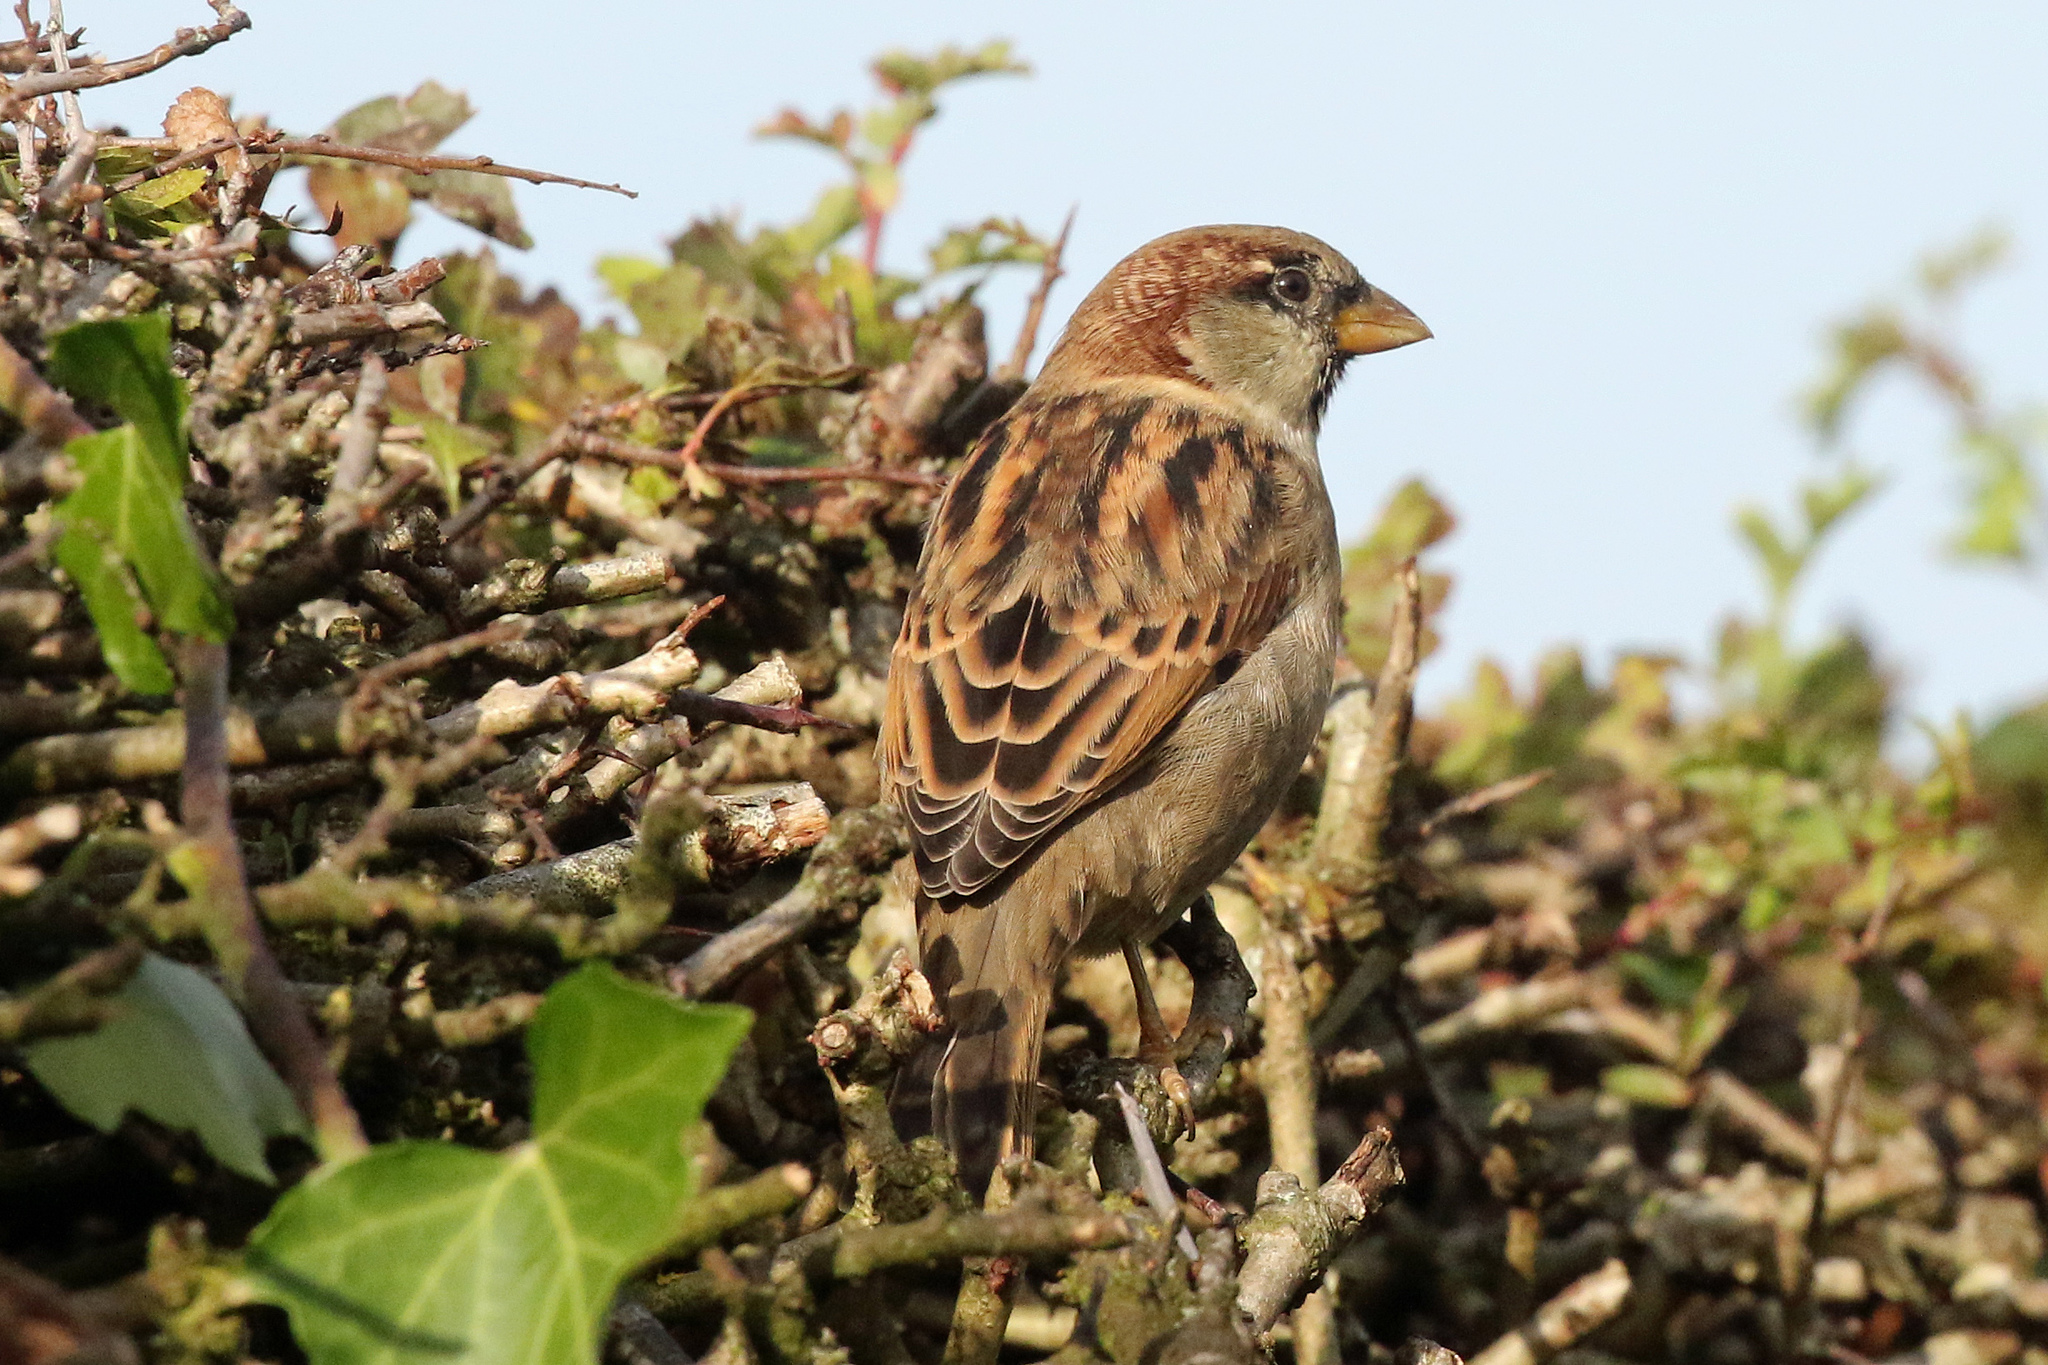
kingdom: Animalia
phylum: Chordata
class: Aves
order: Passeriformes
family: Passeridae
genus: Passer
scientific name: Passer domesticus
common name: House sparrow
